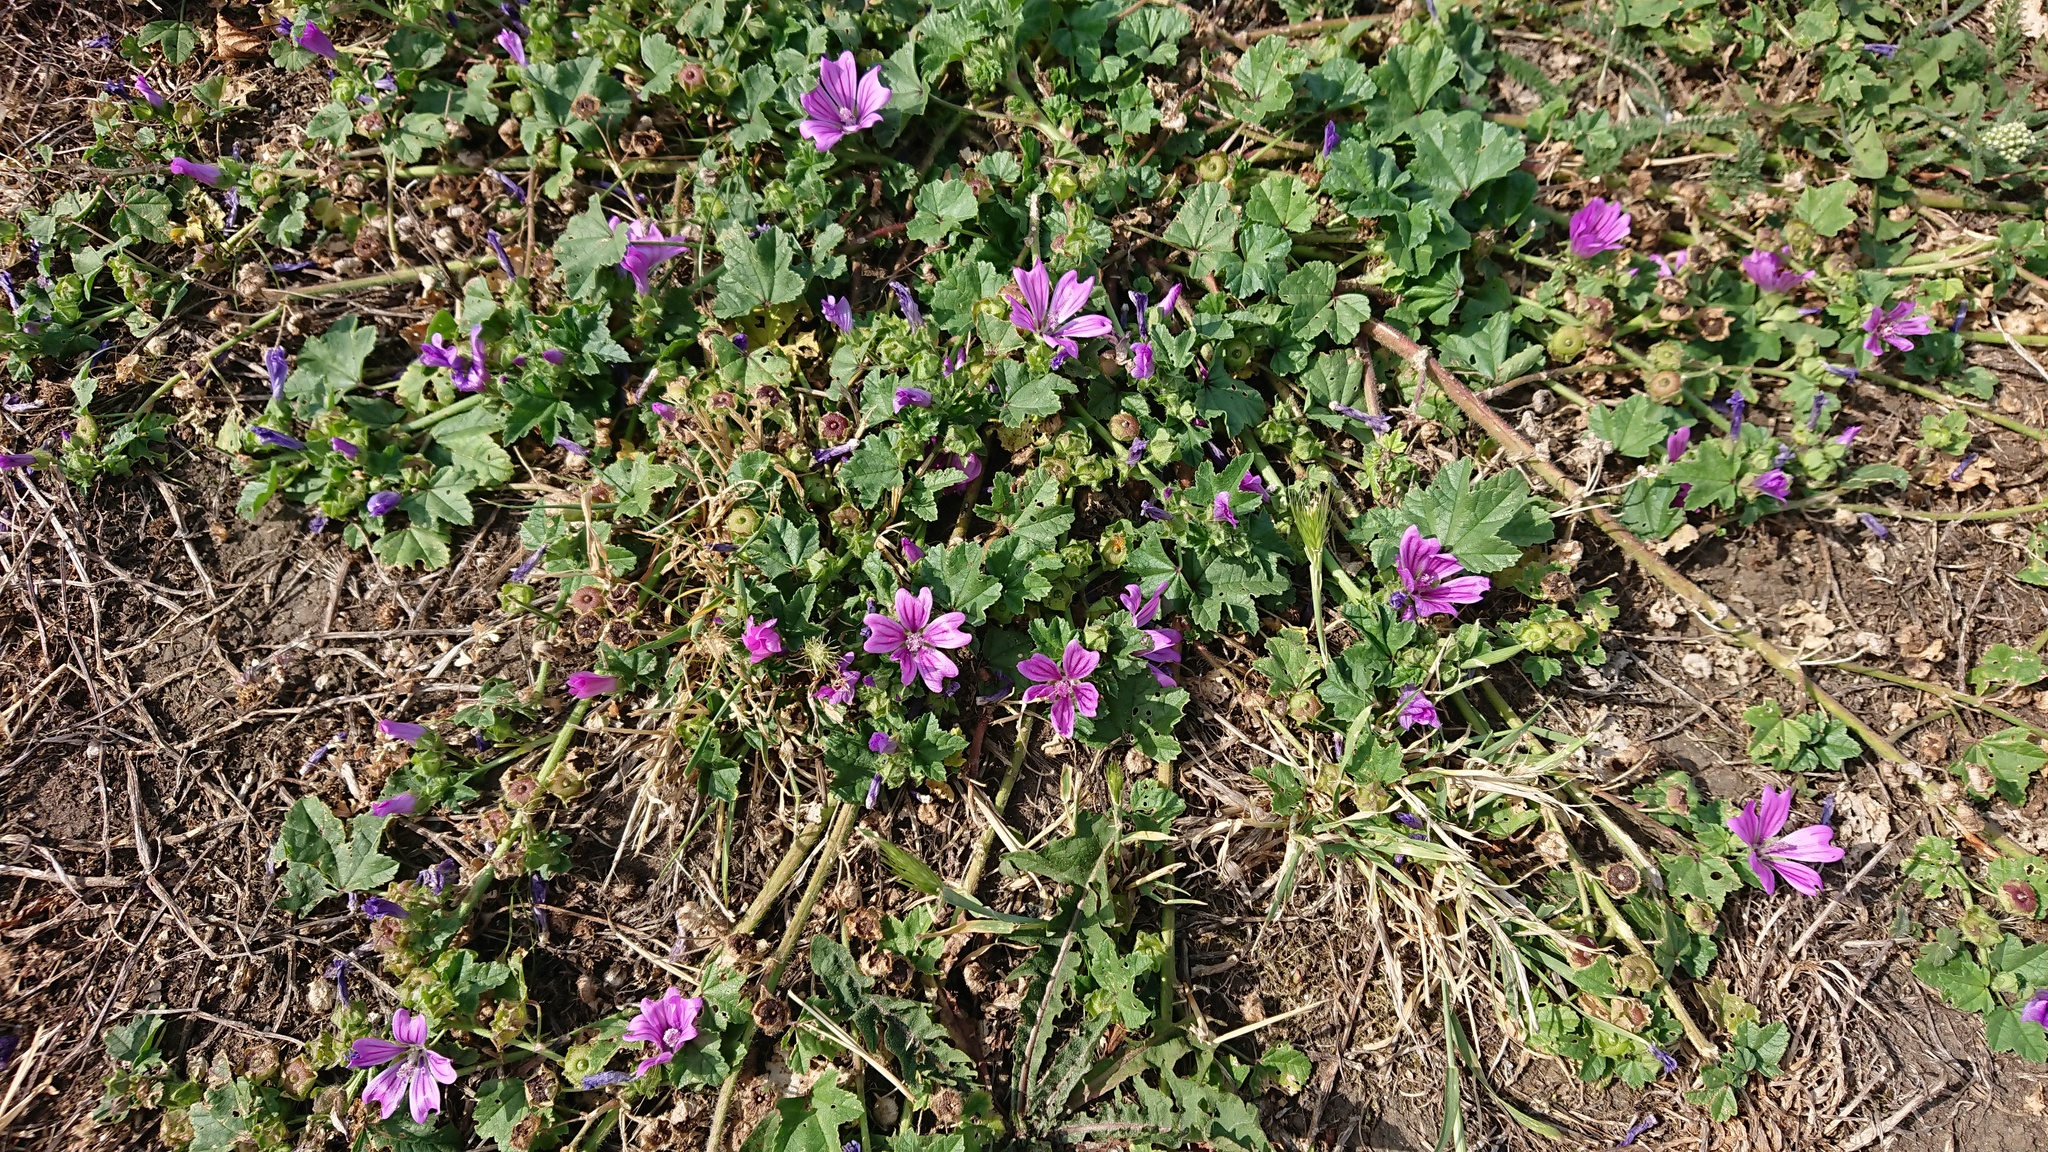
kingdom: Plantae
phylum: Tracheophyta
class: Magnoliopsida
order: Malvales
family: Malvaceae
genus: Malva
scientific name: Malva sylvestris
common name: Common mallow
